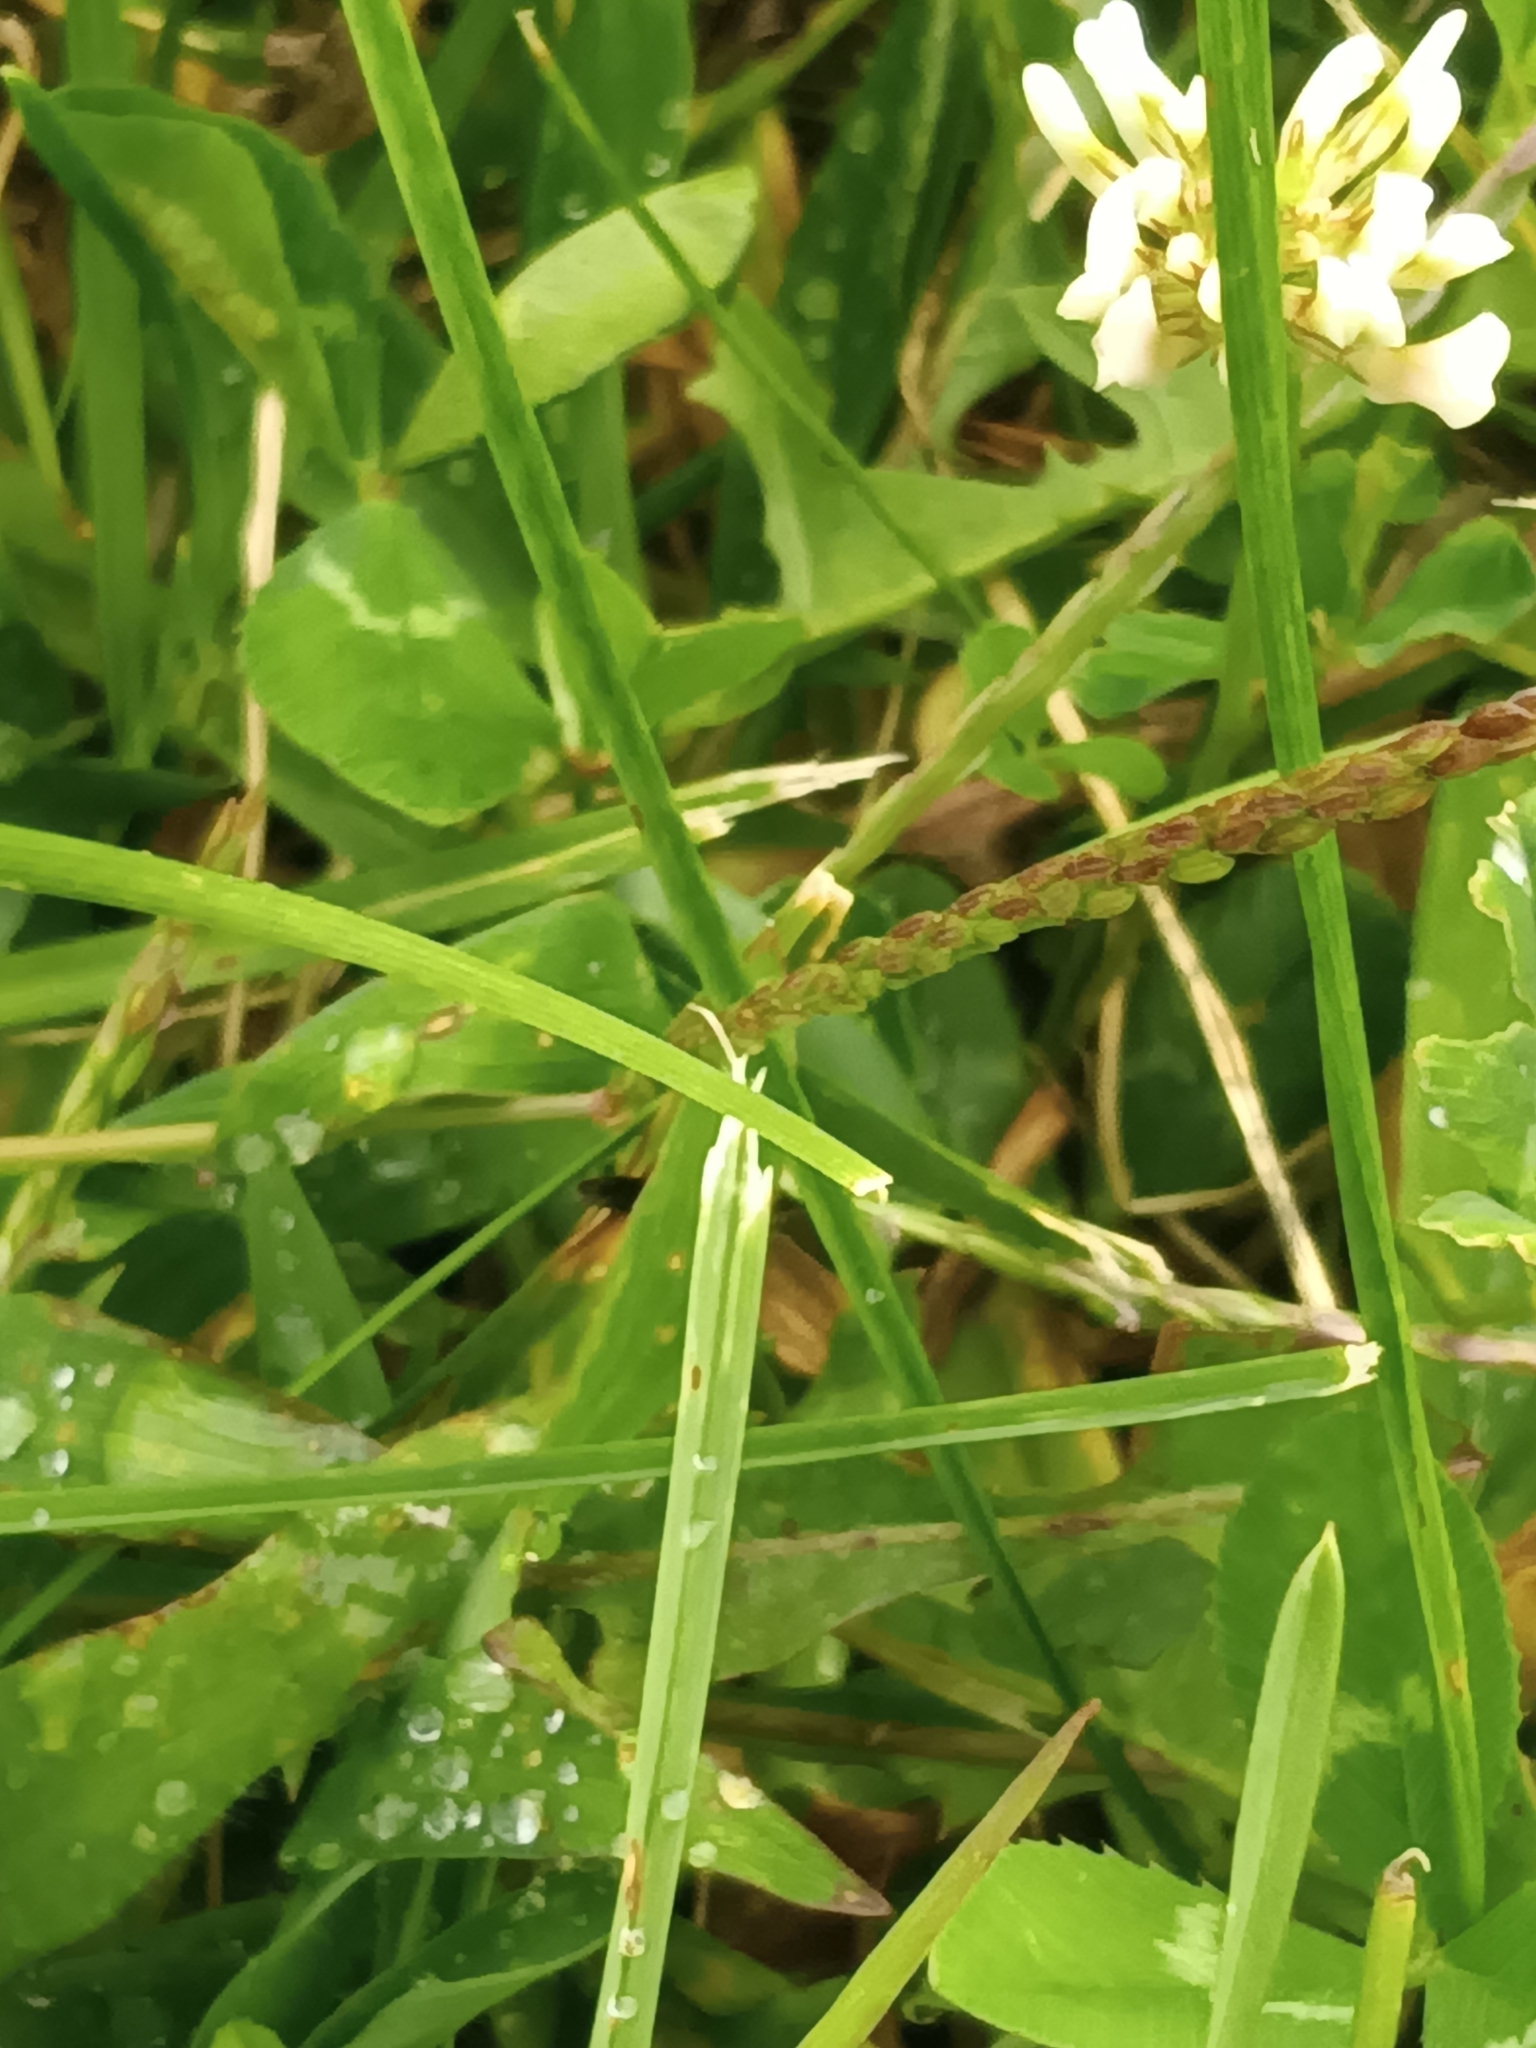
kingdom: Plantae
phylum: Tracheophyta
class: Magnoliopsida
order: Fabales
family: Fabaceae
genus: Trifolium
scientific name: Trifolium repens
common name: White clover
